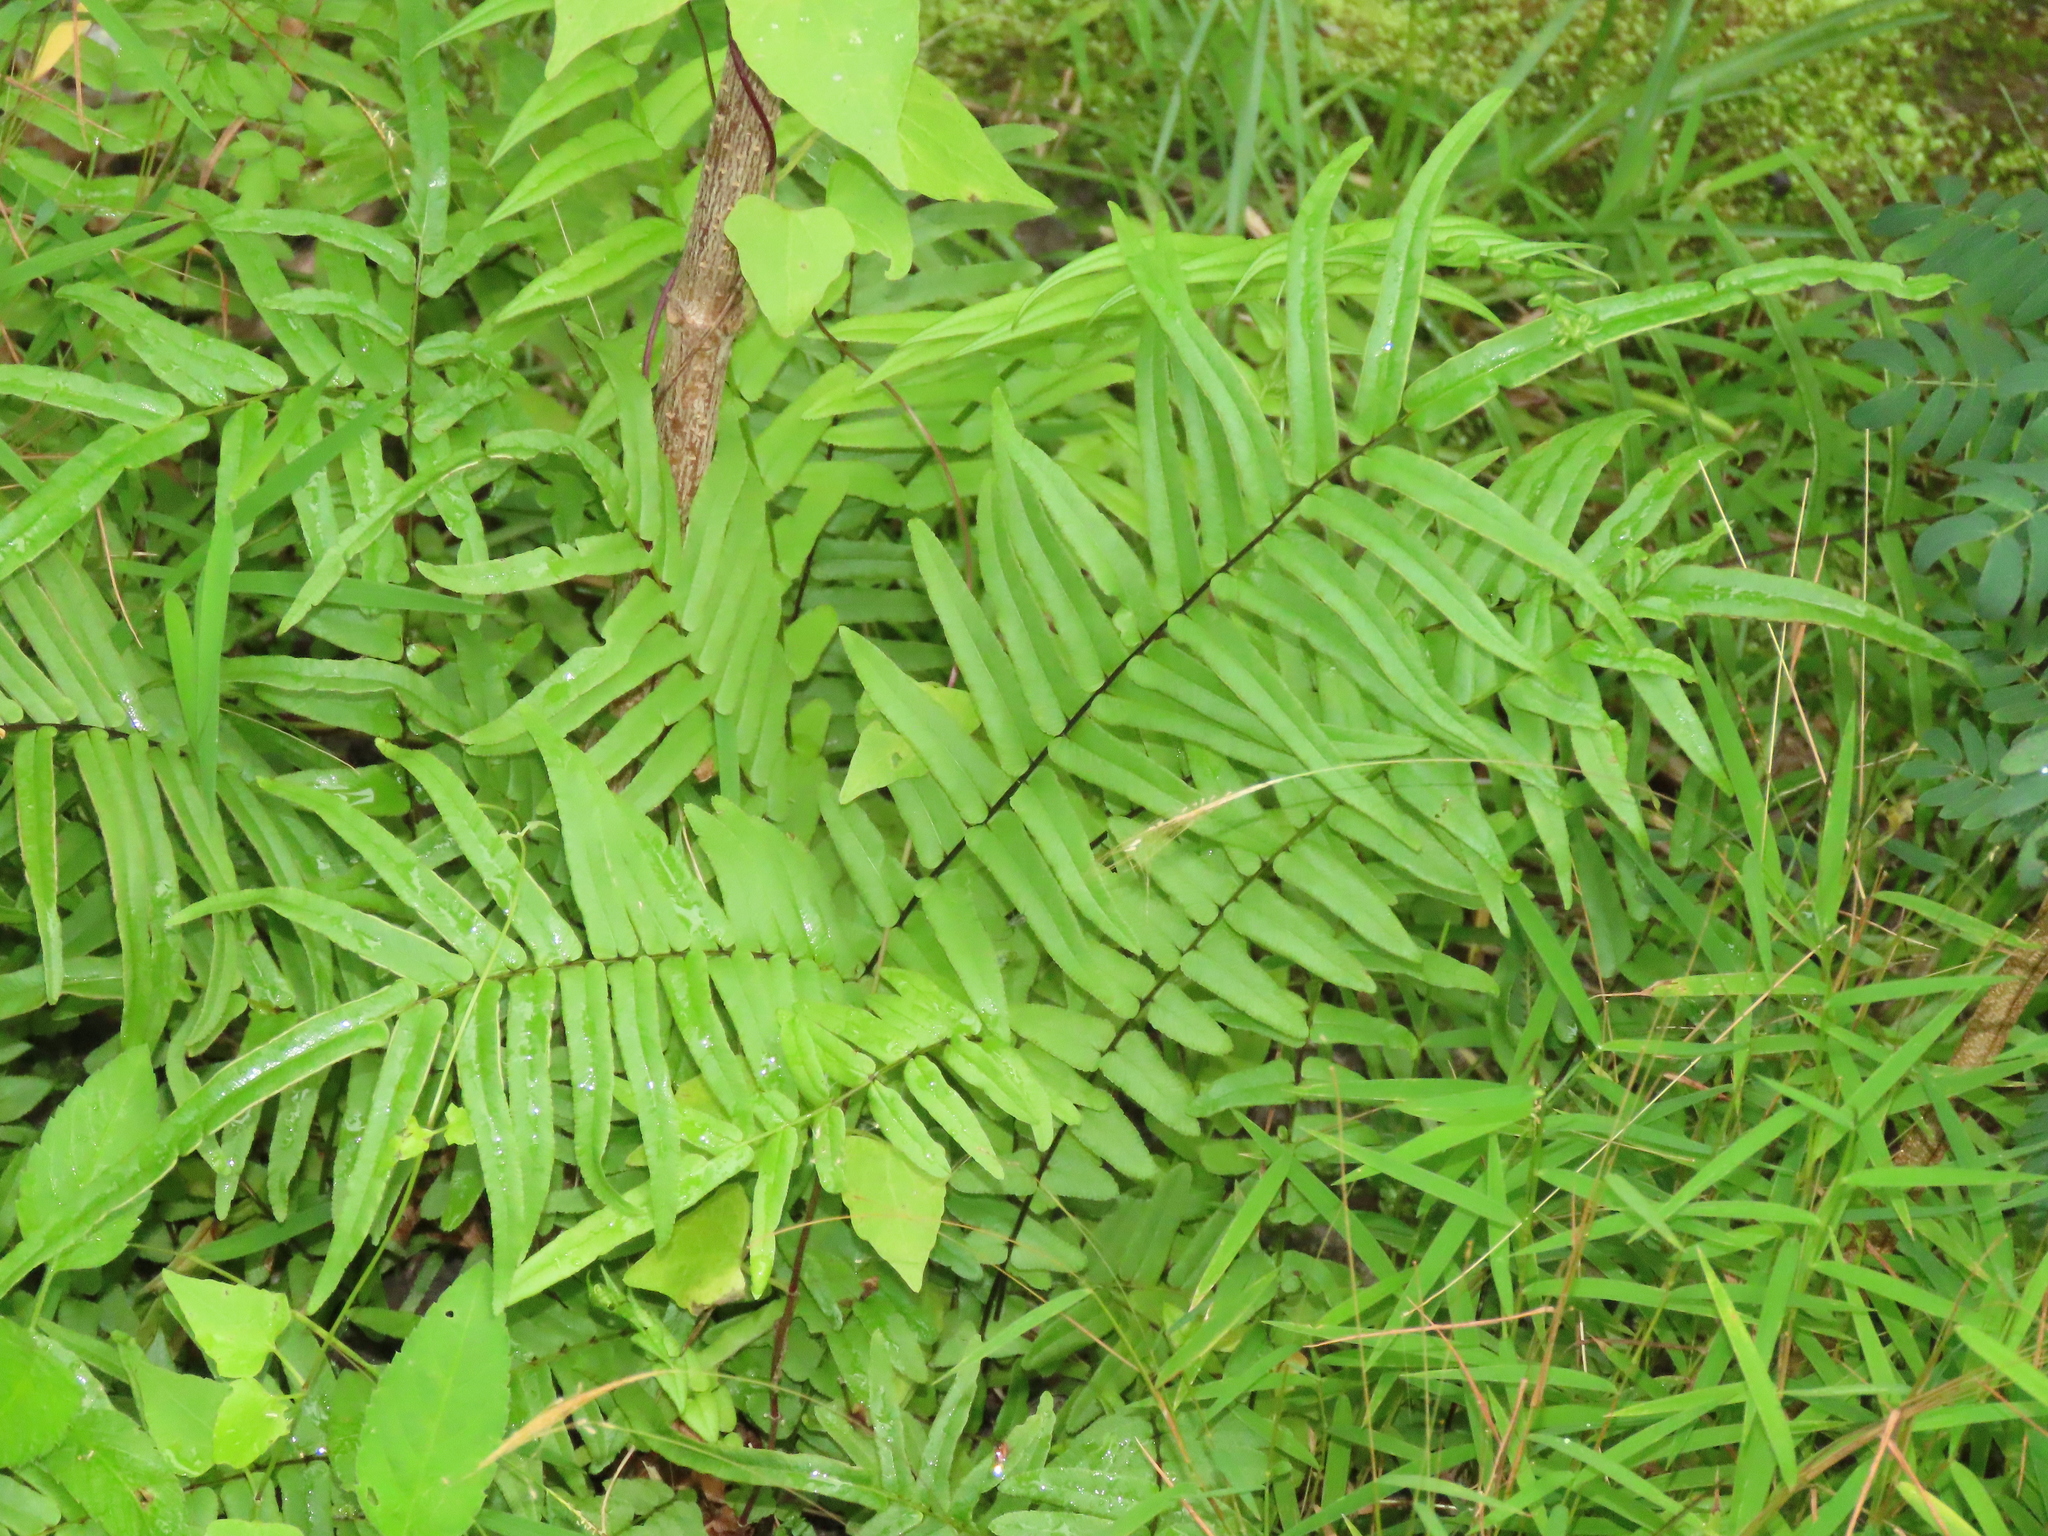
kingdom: Plantae
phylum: Tracheophyta
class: Polypodiopsida
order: Polypodiales
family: Pteridaceae
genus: Pteris
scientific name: Pteris vittata
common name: Ladder brake
